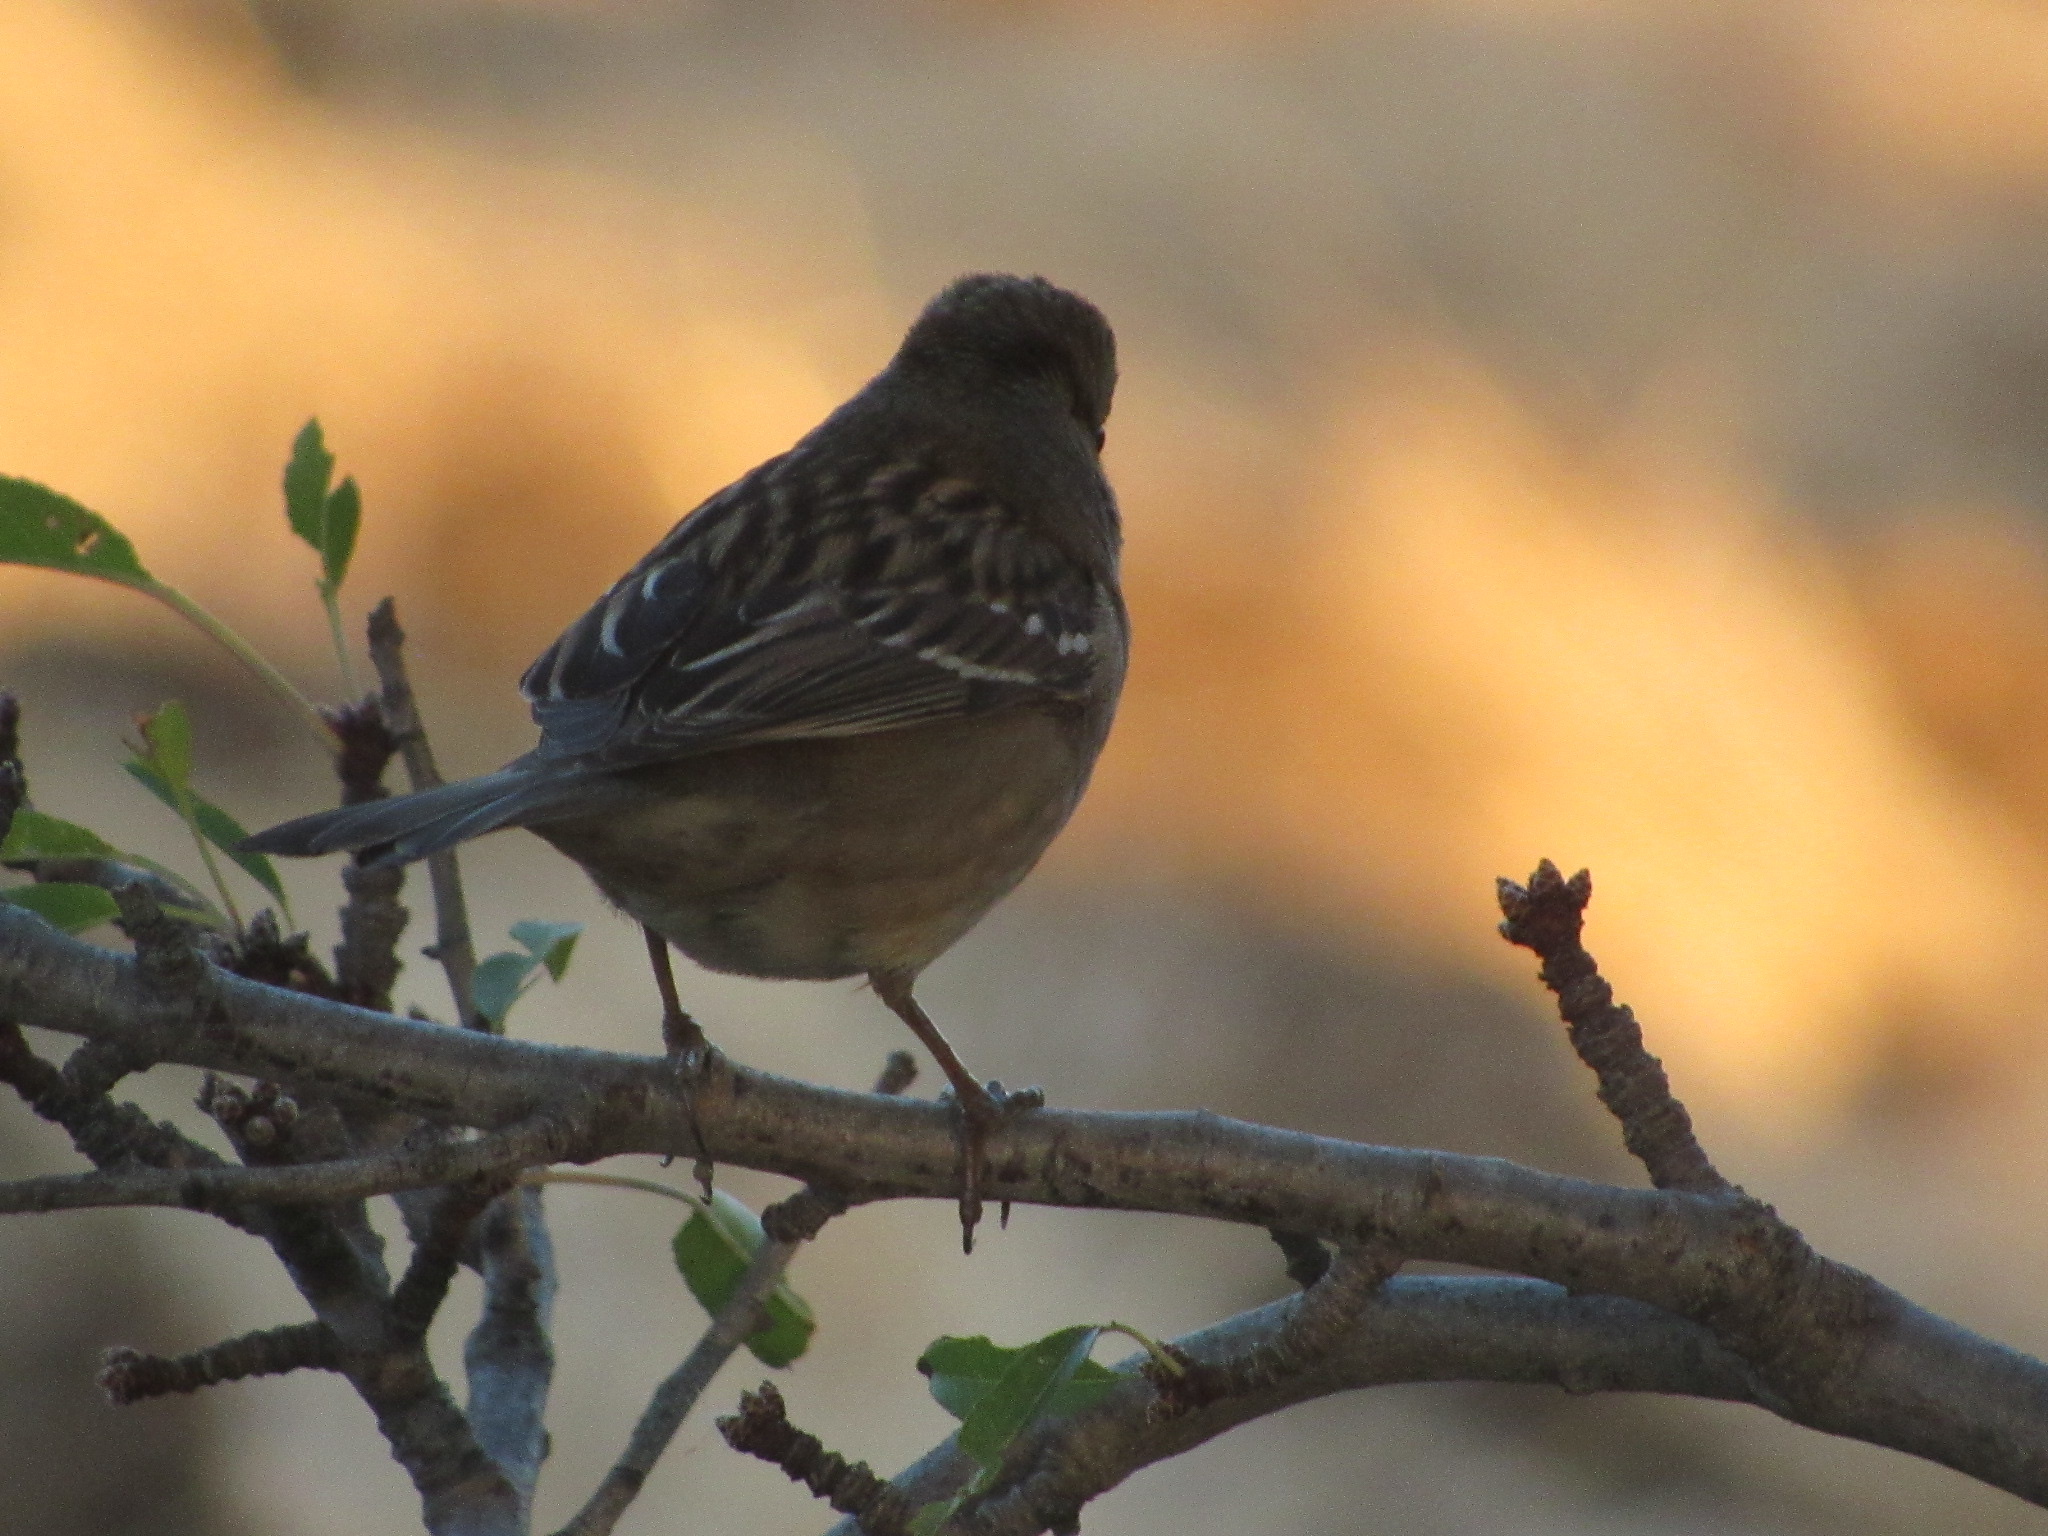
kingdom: Animalia
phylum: Chordata
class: Aves
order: Passeriformes
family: Passerellidae
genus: Zonotrichia
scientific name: Zonotrichia leucophrys
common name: White-crowned sparrow
